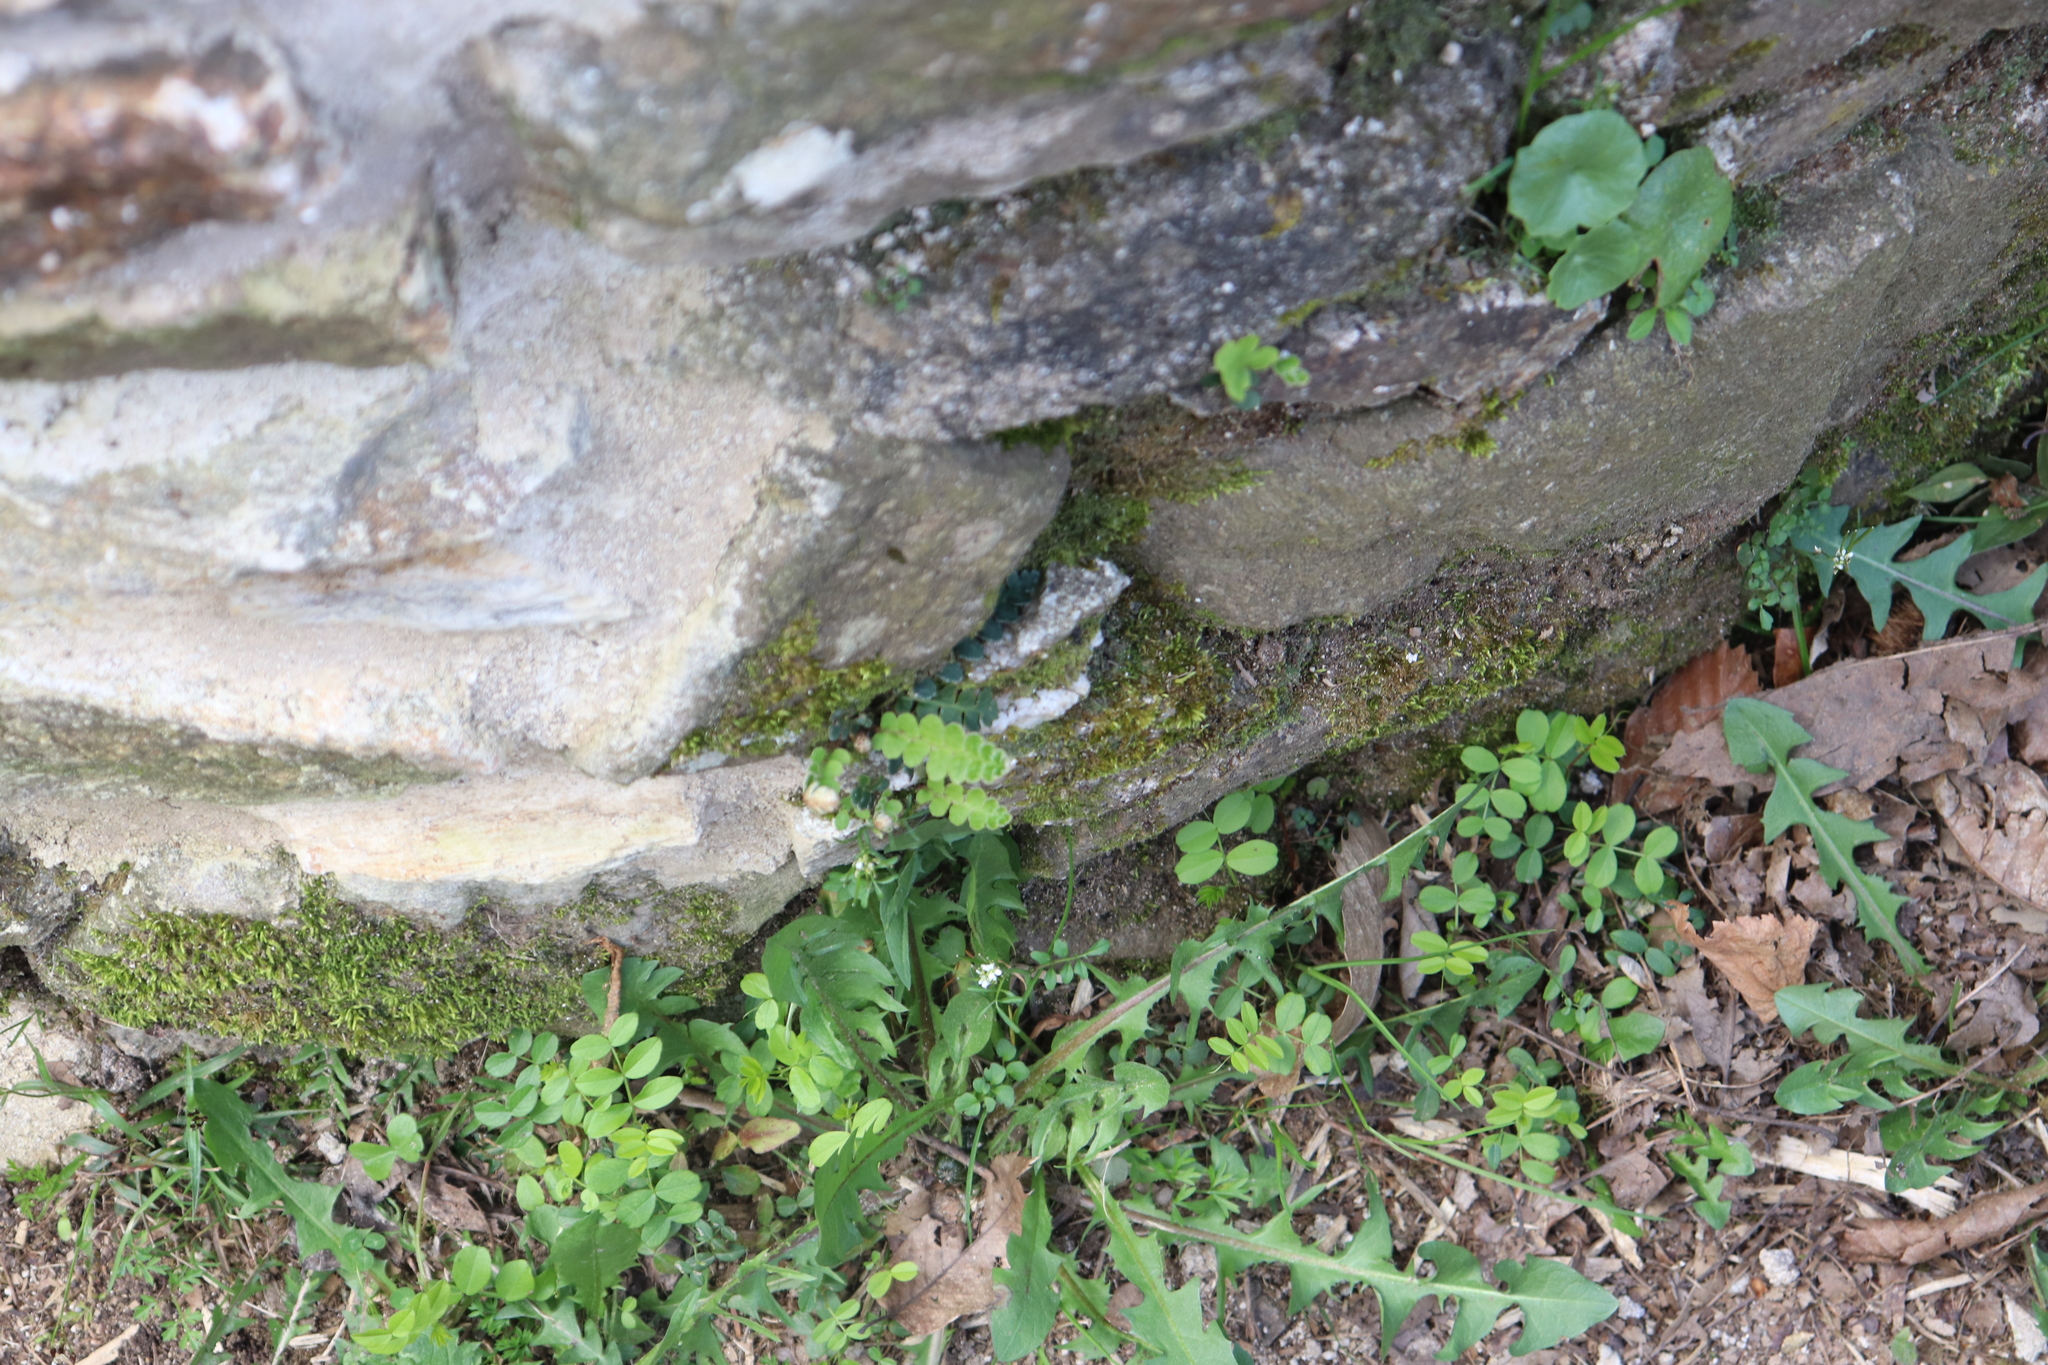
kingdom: Plantae
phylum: Tracheophyta
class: Polypodiopsida
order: Polypodiales
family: Aspleniaceae
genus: Asplenium
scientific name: Asplenium ceterach
